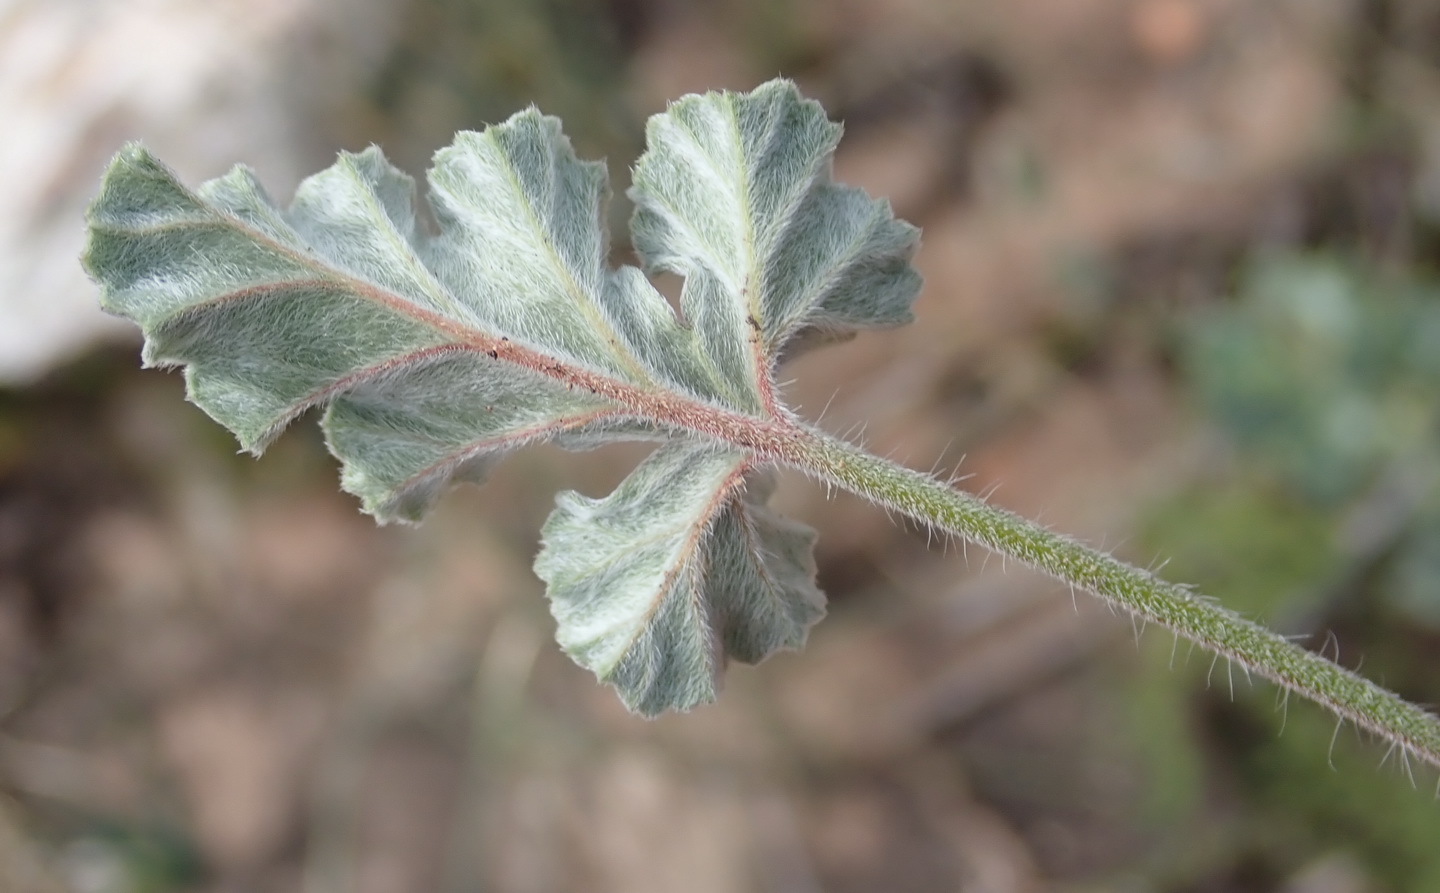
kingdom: Plantae
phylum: Tracheophyta
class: Magnoliopsida
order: Geraniales
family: Geraniaceae
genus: Pelargonium
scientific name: Pelargonium candicans
